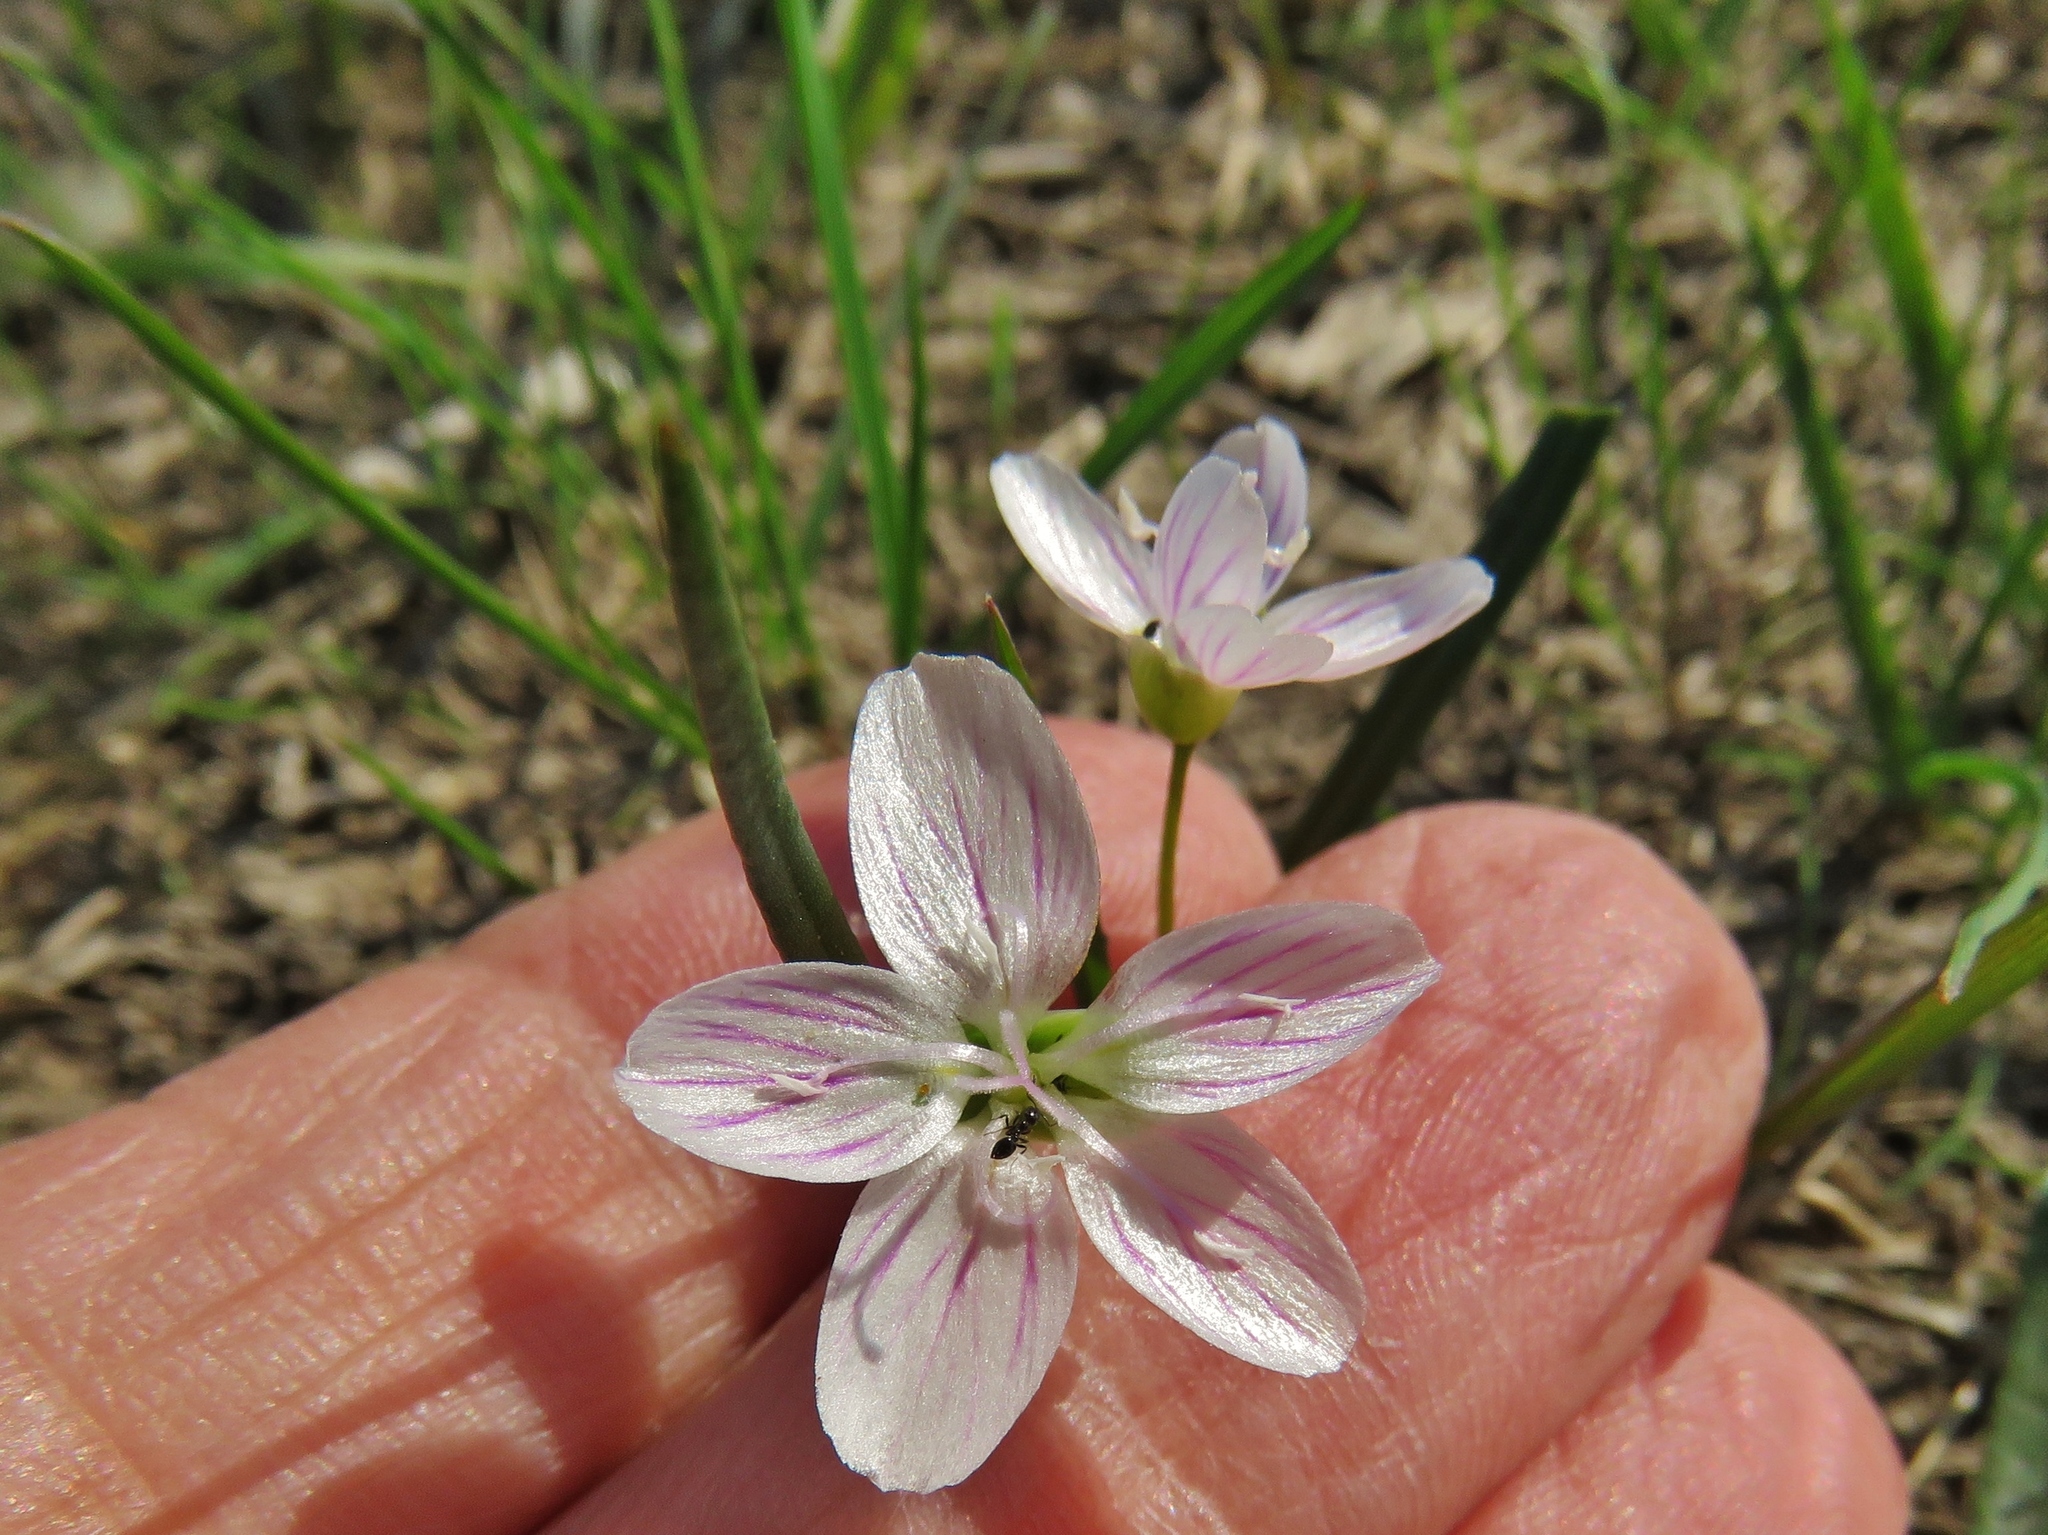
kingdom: Plantae
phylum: Tracheophyta
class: Magnoliopsida
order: Caryophyllales
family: Montiaceae
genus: Claytonia
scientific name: Claytonia virginica
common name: Virginia springbeauty
